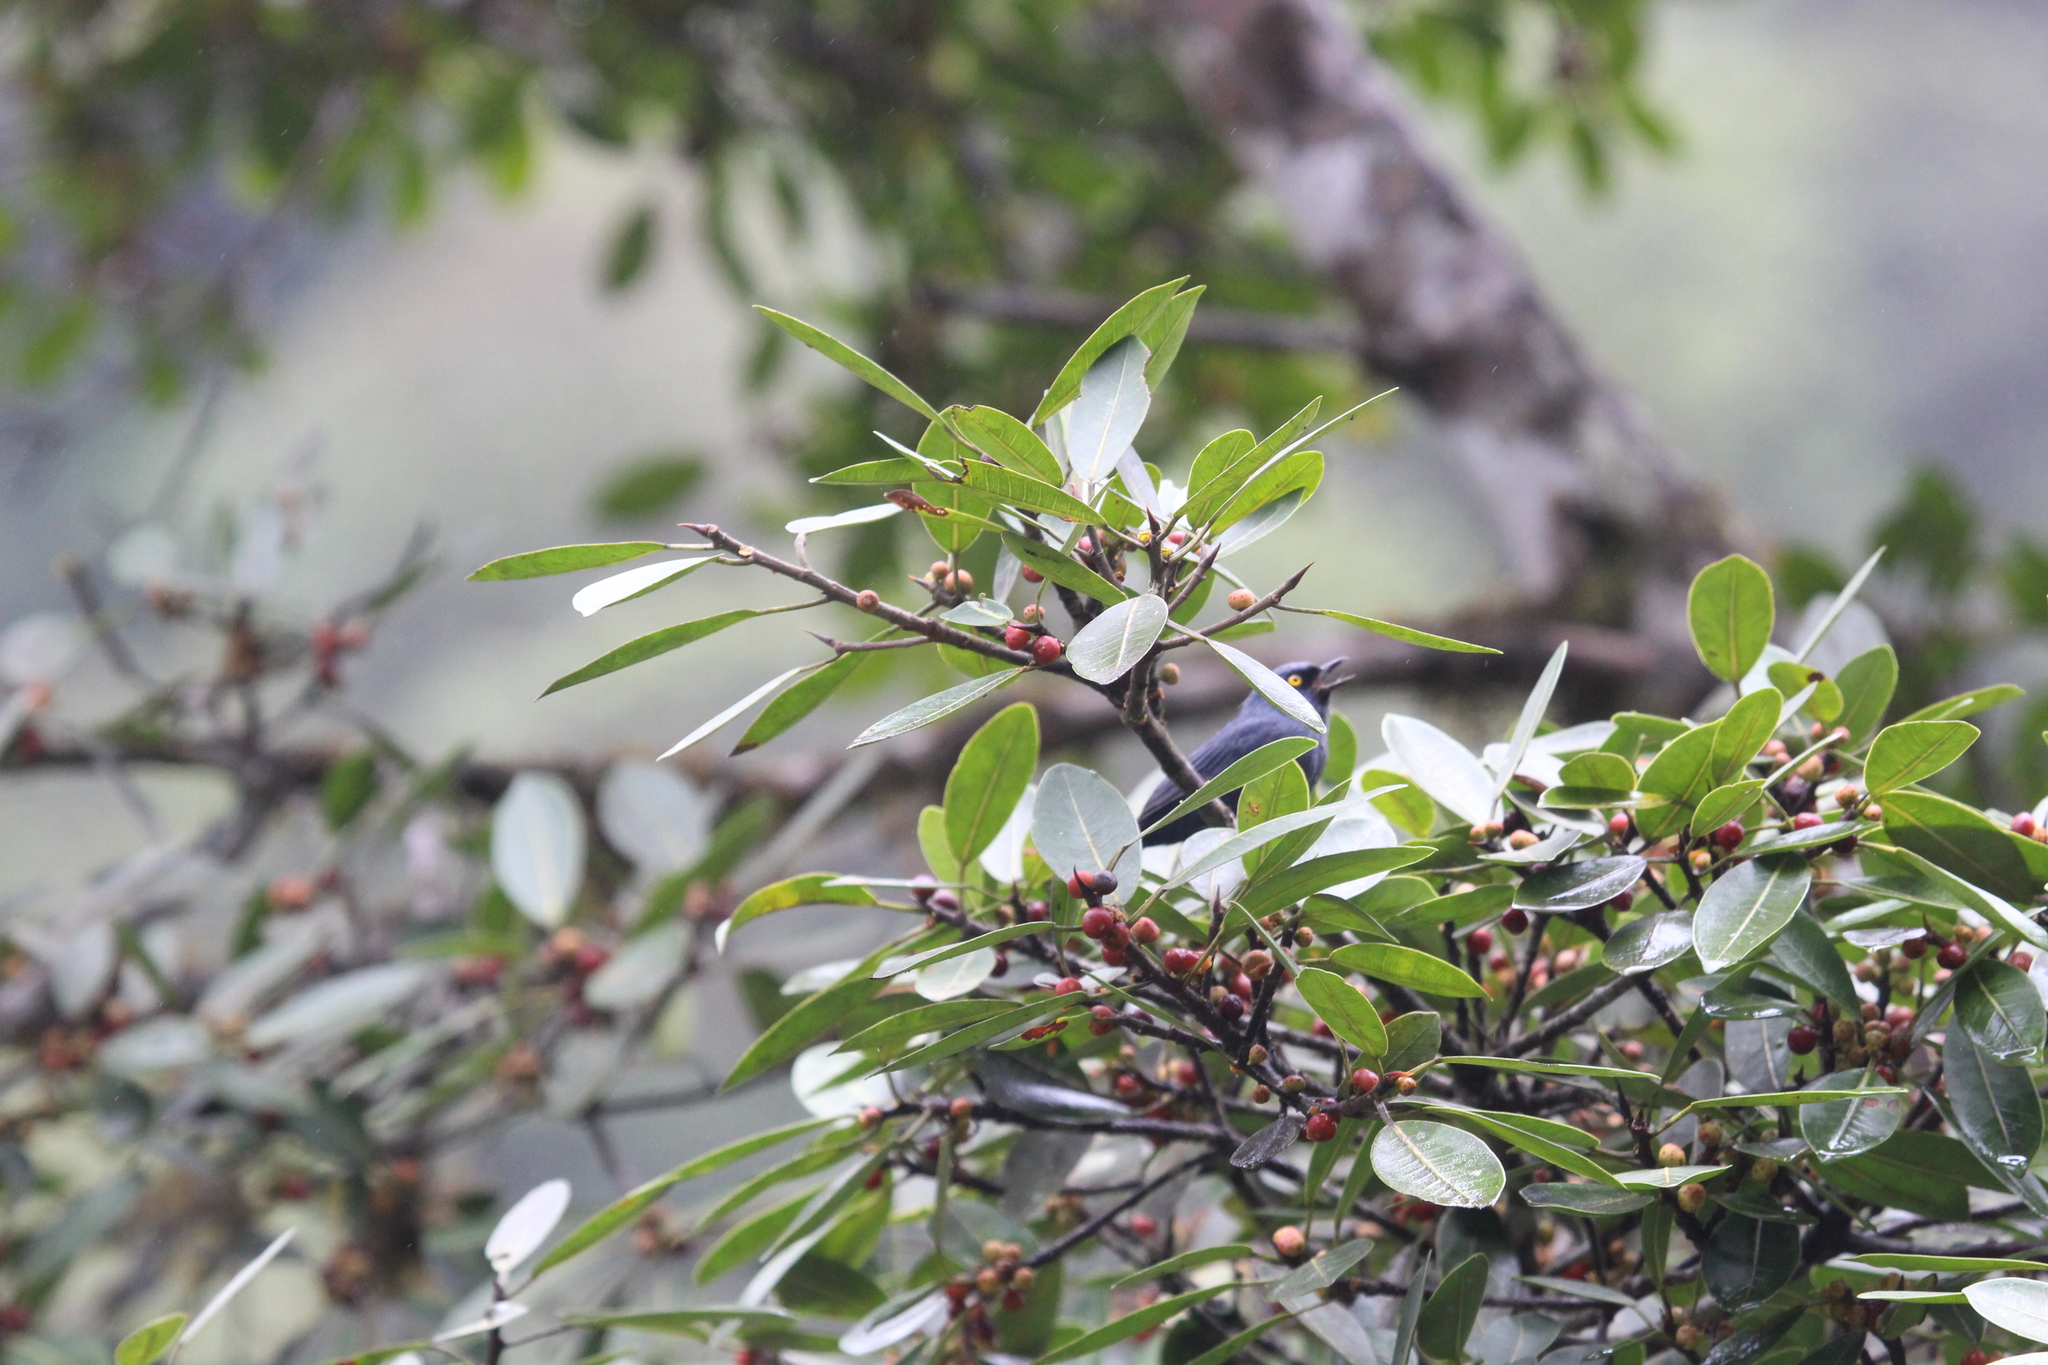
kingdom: Animalia
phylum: Chordata
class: Aves
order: Passeriformes
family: Thraupidae
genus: Diglossa
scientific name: Diglossa glauca
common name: Deep-blue flowerpiercer
